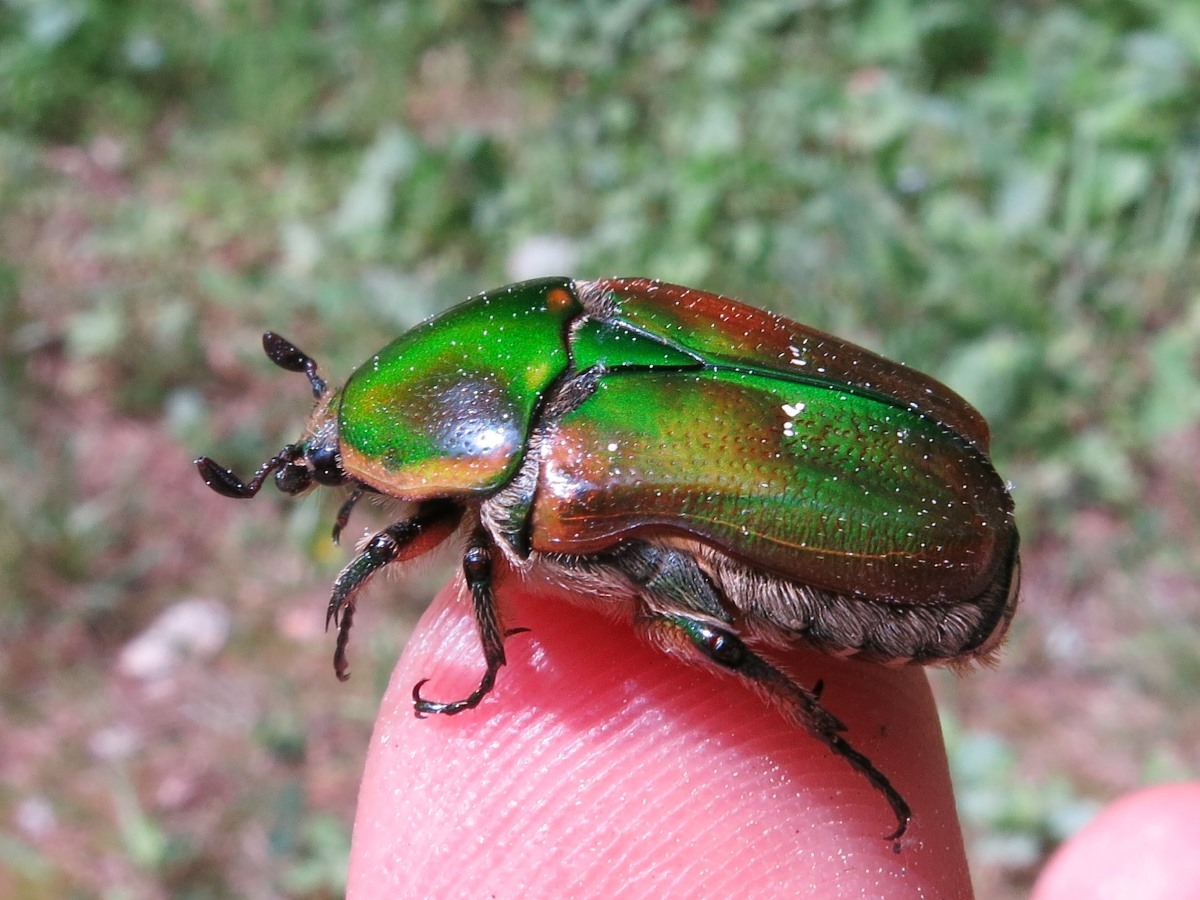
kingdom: Animalia
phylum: Arthropoda
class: Insecta
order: Coleoptera
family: Scarabaeidae
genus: Euphoria
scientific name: Euphoria fulgida
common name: Emerald euphoria
